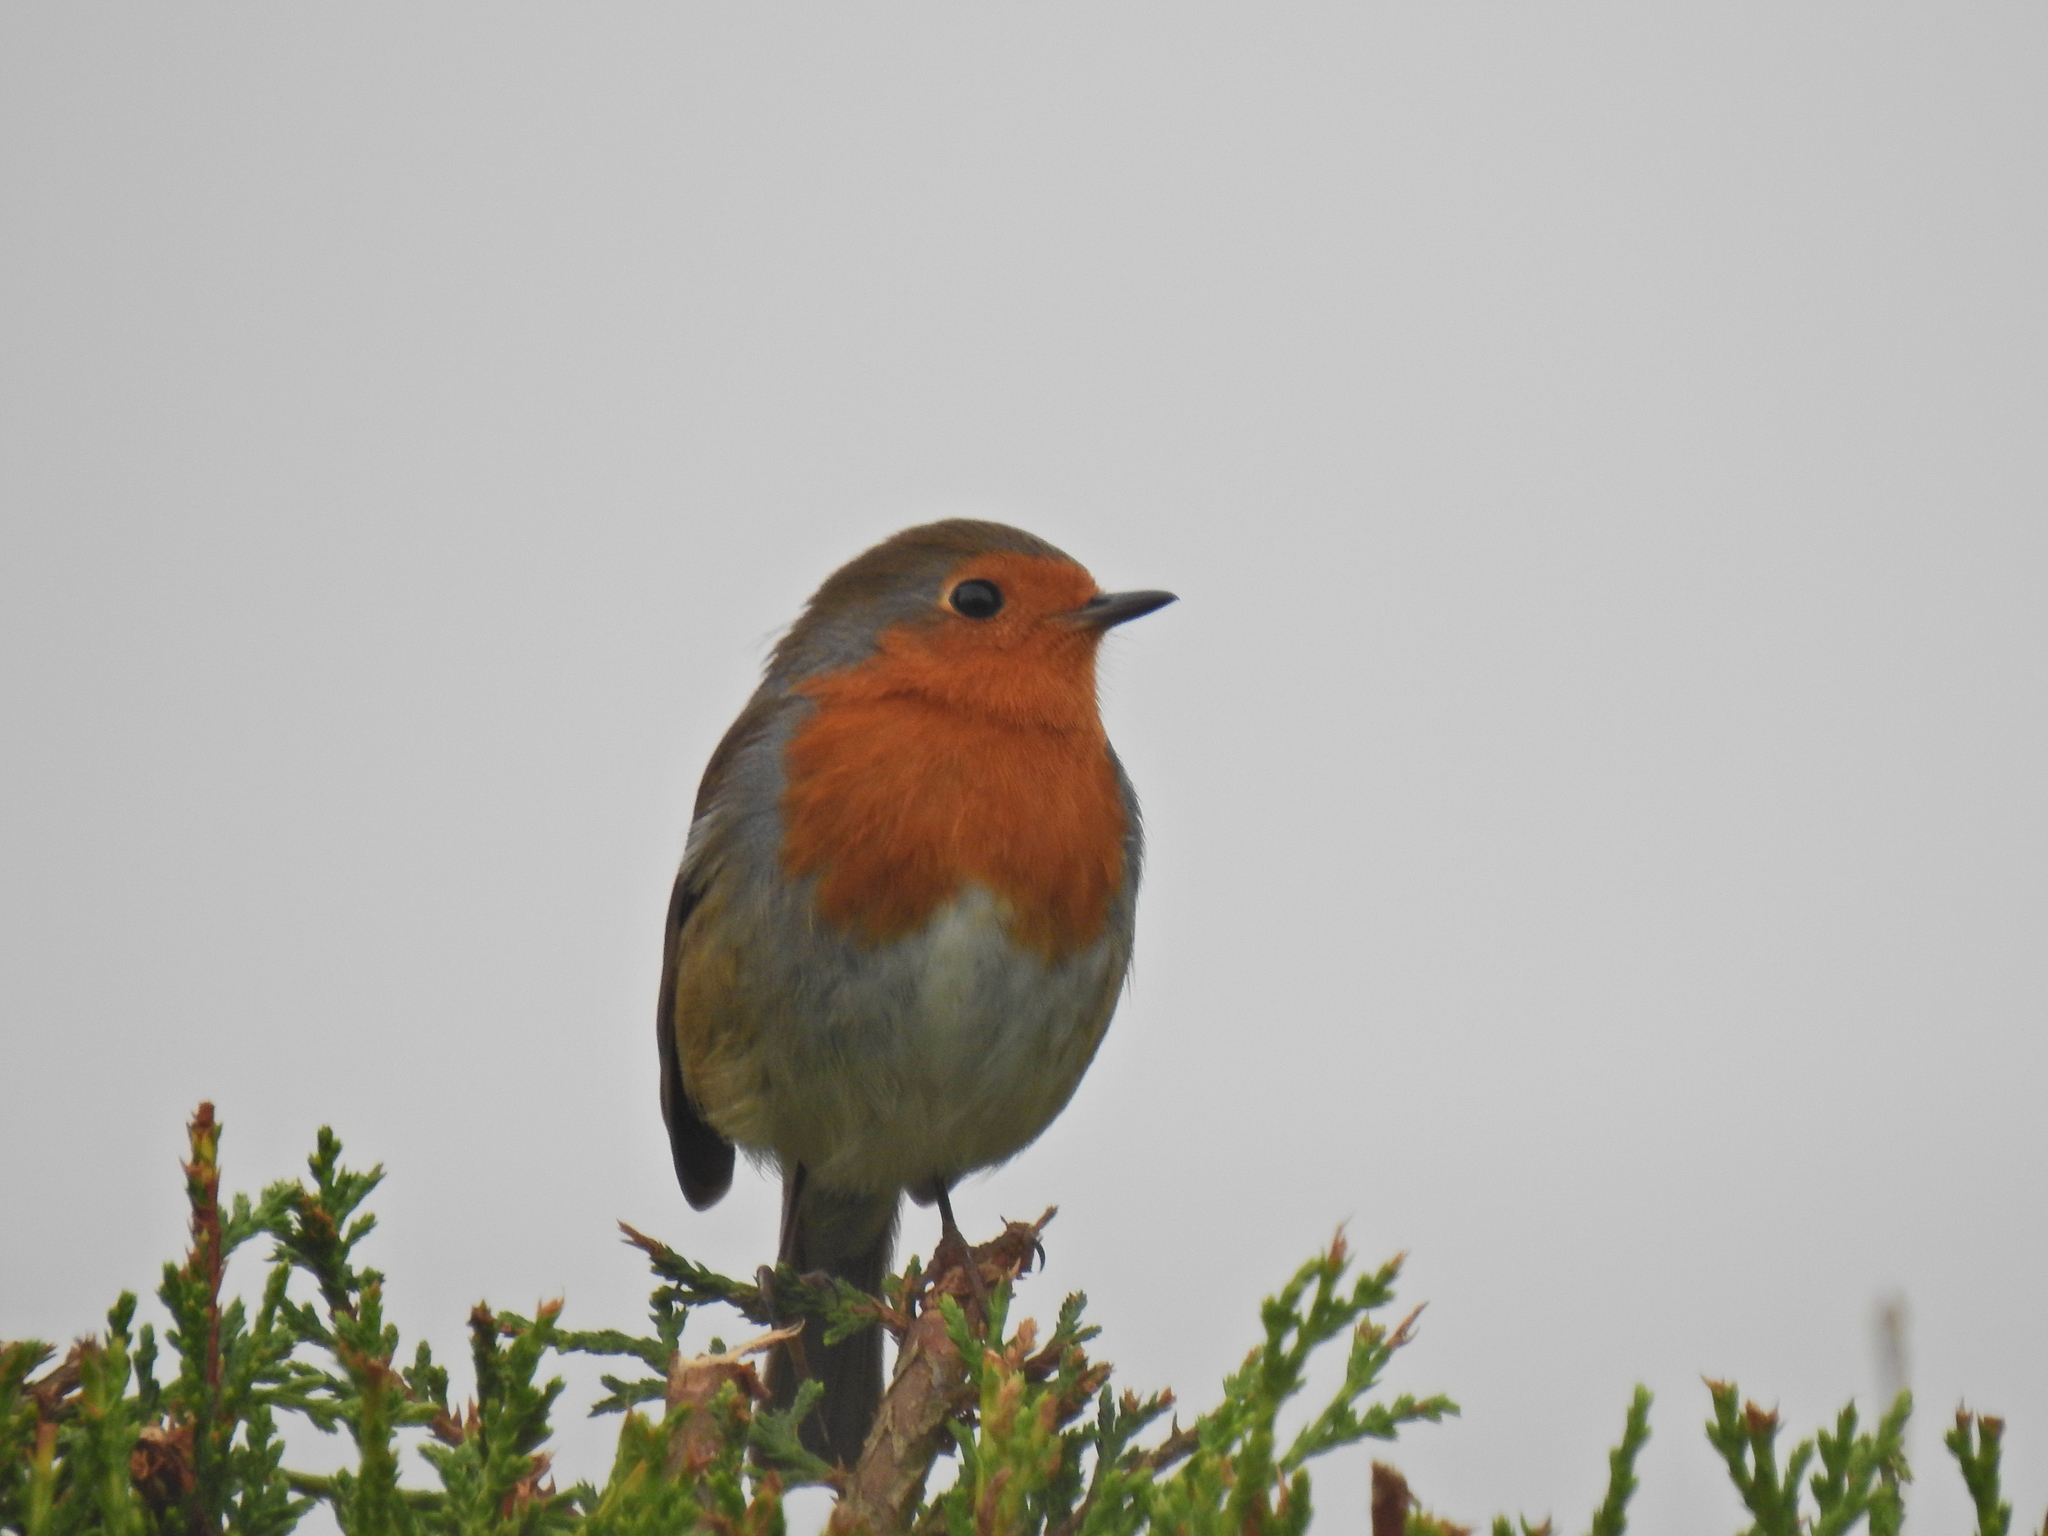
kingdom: Animalia
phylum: Chordata
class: Aves
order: Passeriformes
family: Muscicapidae
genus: Erithacus
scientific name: Erithacus rubecula
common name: European robin
